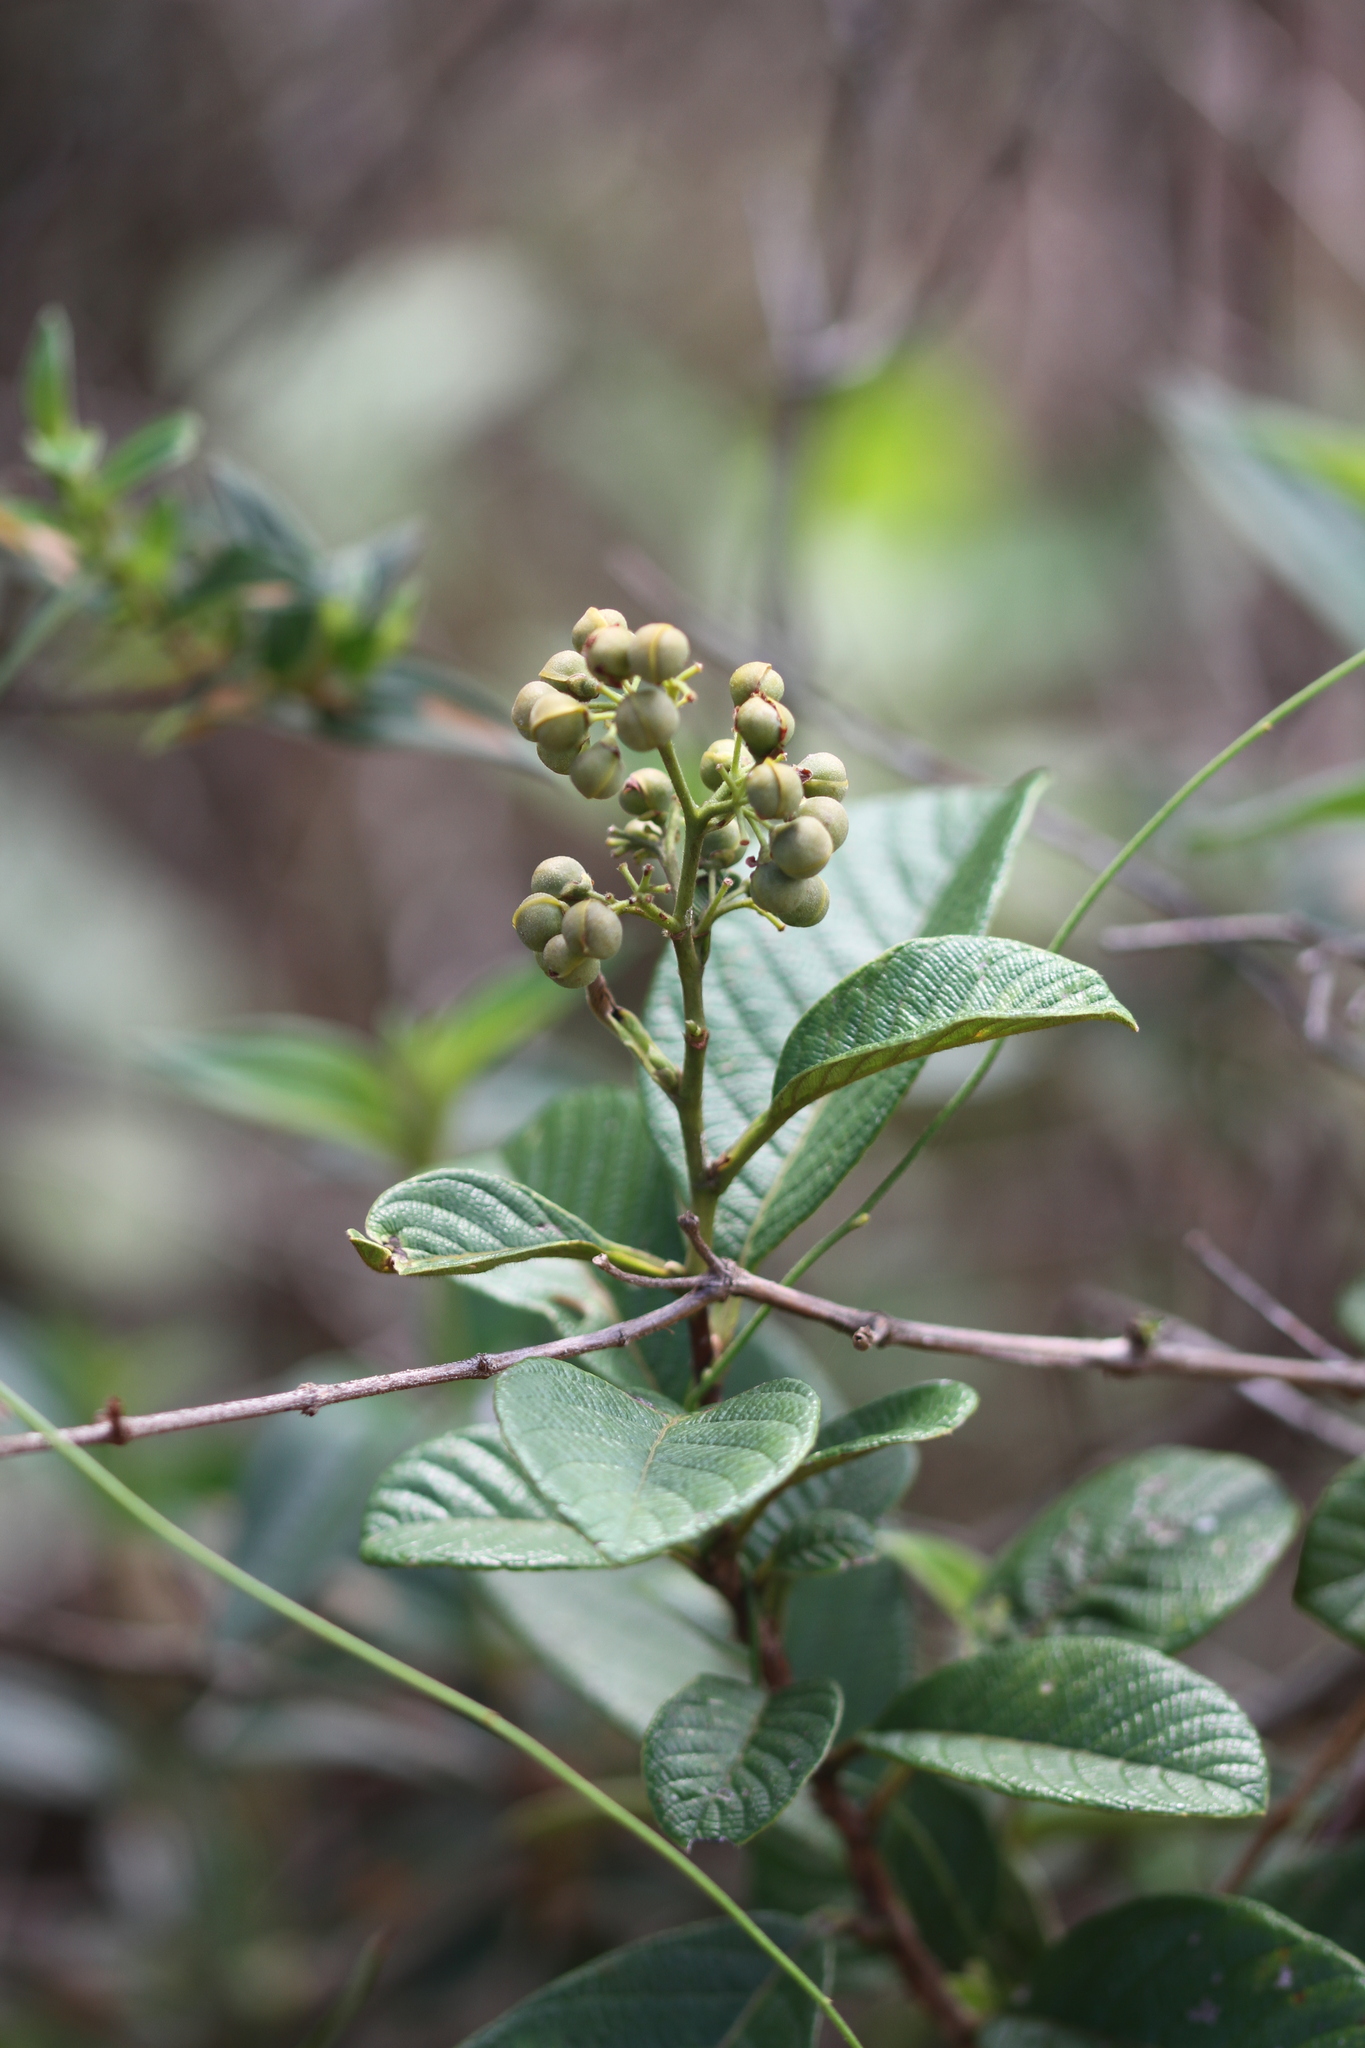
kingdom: Plantae
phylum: Tracheophyta
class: Magnoliopsida
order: Dilleniales
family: Dilleniaceae
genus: Davilla
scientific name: Davilla nitida
